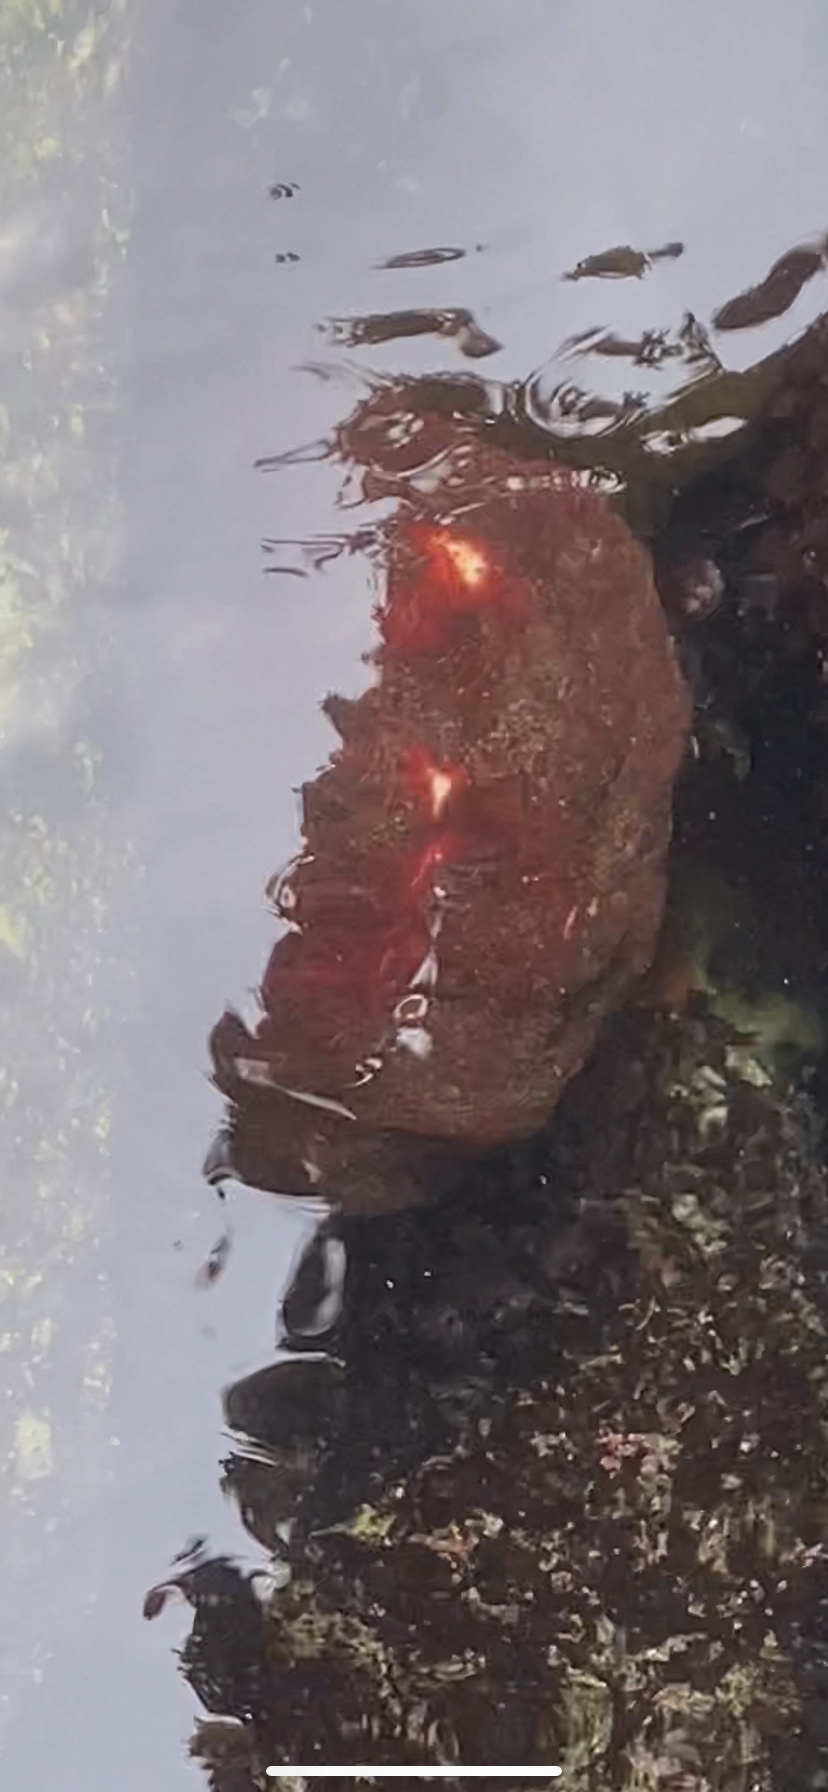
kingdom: Animalia
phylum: Mollusca
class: Polyplacophora
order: Chitonida
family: Acanthochitonidae
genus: Cryptochiton
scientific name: Cryptochiton stelleri
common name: Giant pacific chiton
